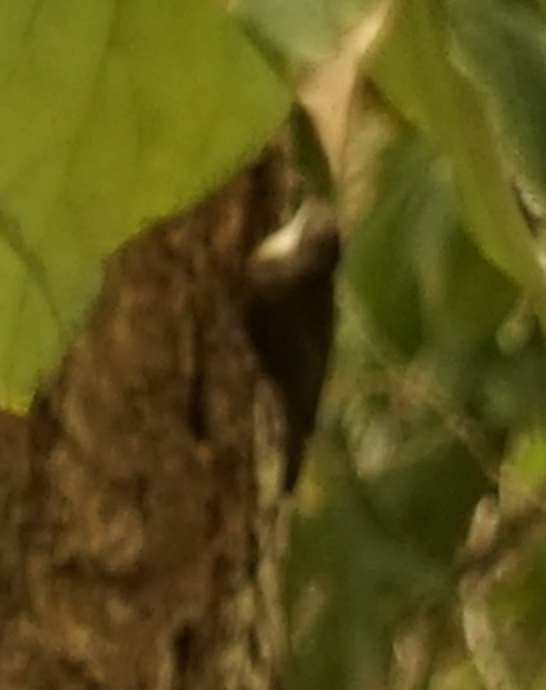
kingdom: Animalia
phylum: Chordata
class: Aves
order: Passeriformes
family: Climacteridae
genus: Cormobates
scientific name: Cormobates leucophaea
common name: White-throated treecreeper
